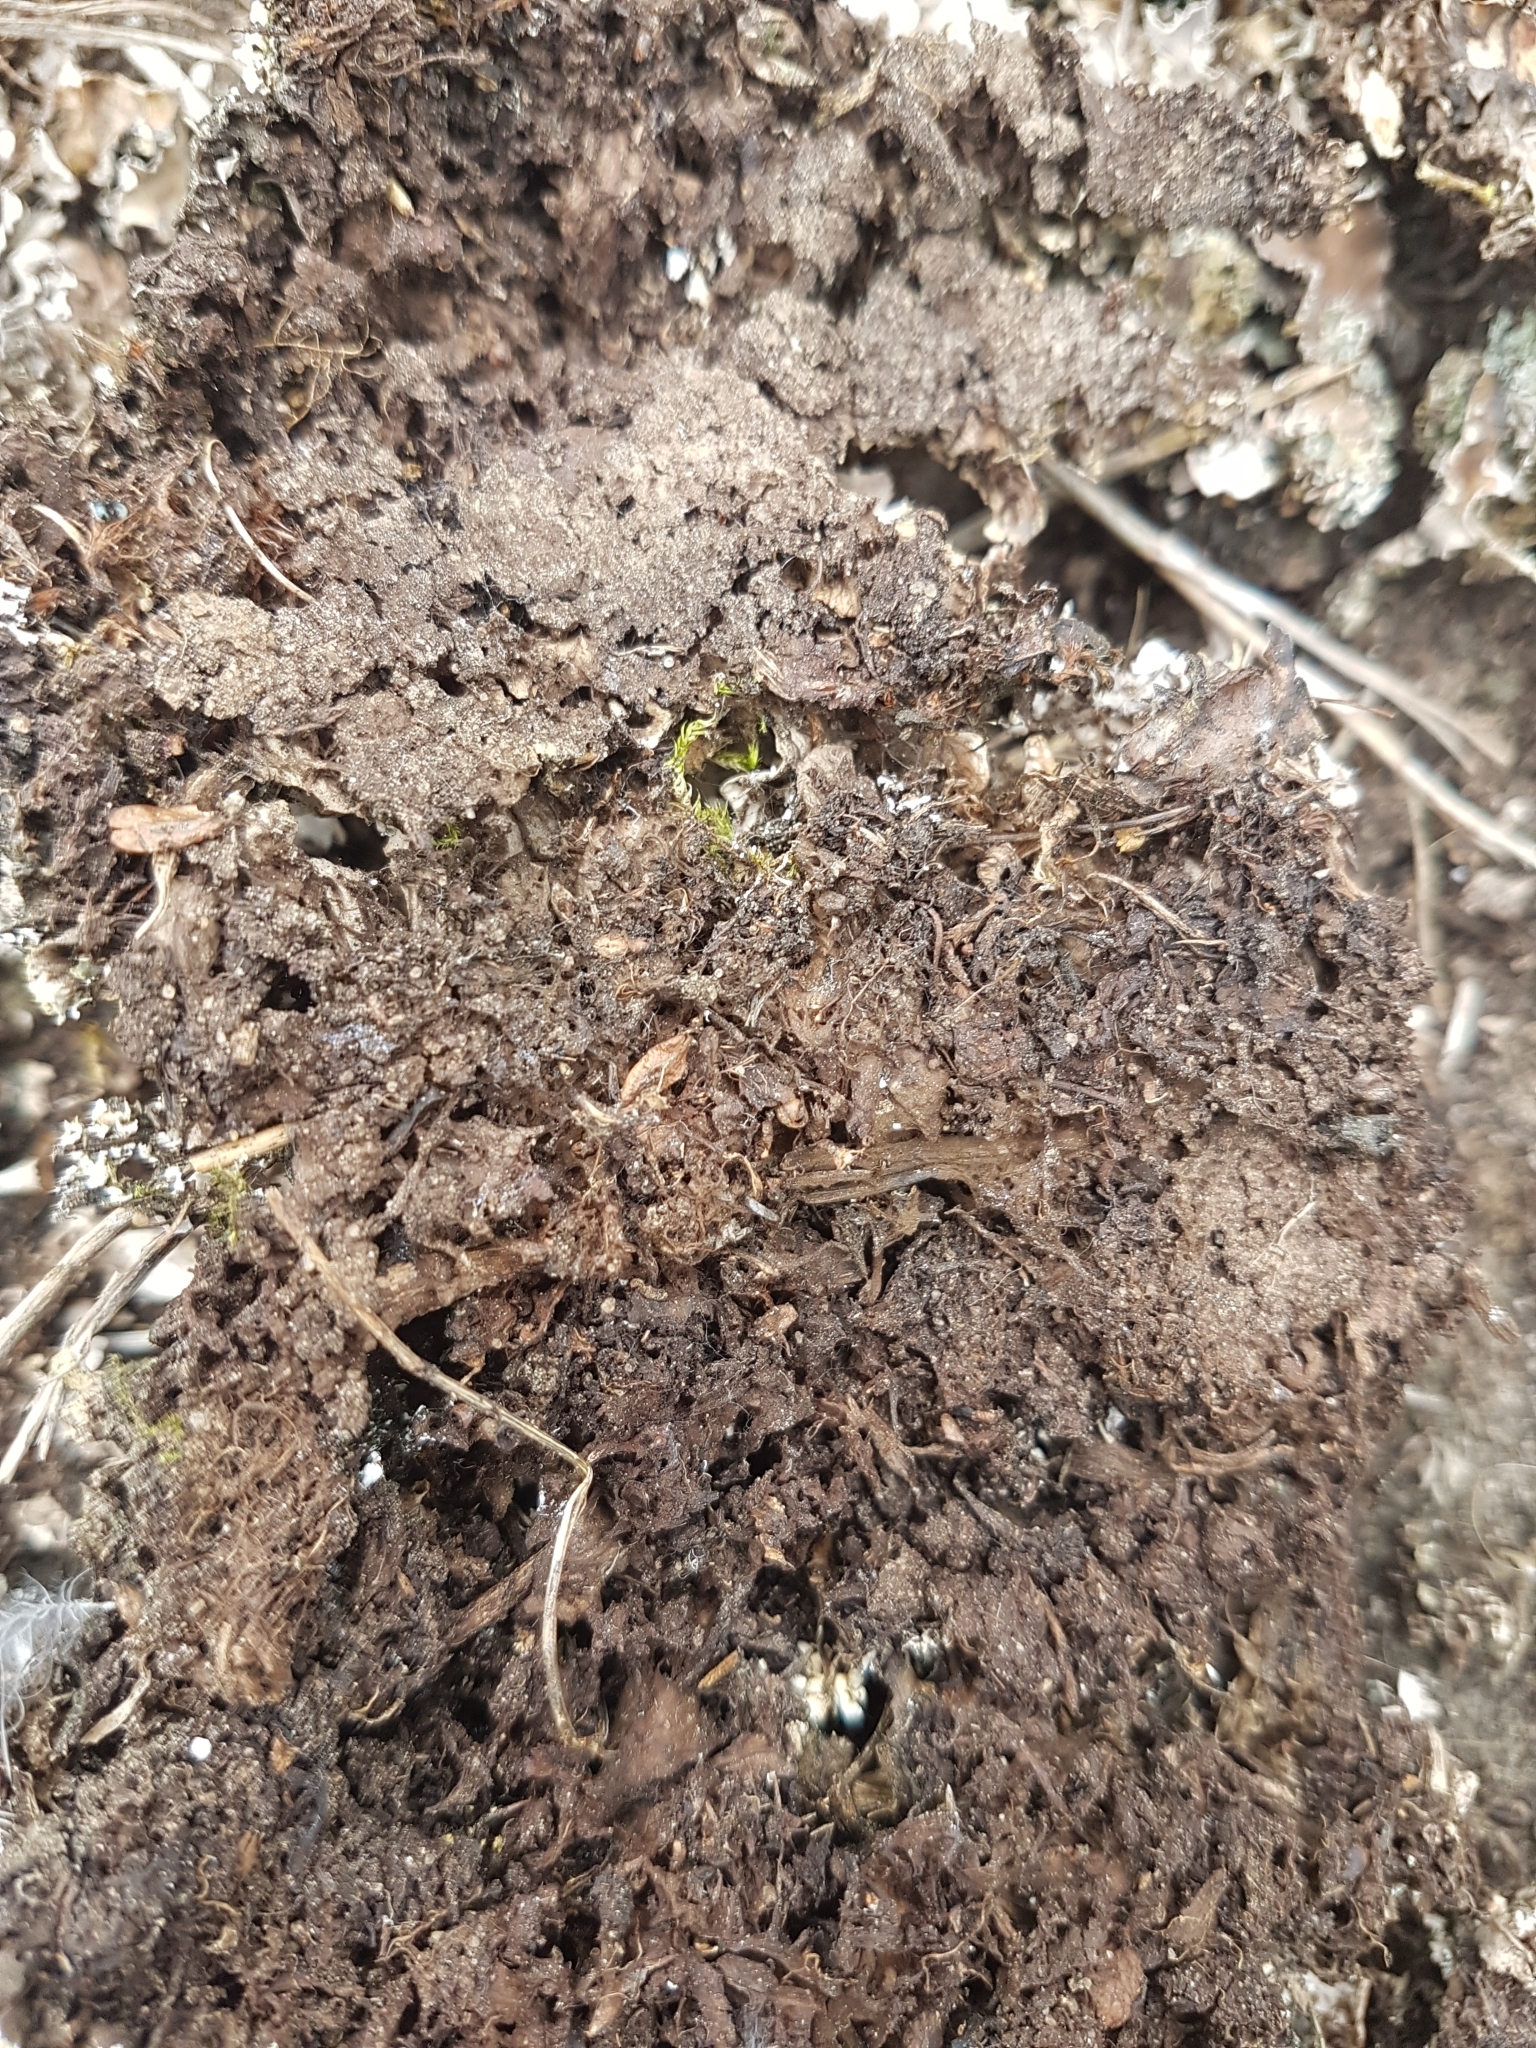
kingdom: Fungi
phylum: Ascomycota
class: Lecanoromycetes
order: Peltigerales
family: Peltigeraceae
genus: Peltigera
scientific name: Peltigera rufescens
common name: Field dog lichen
